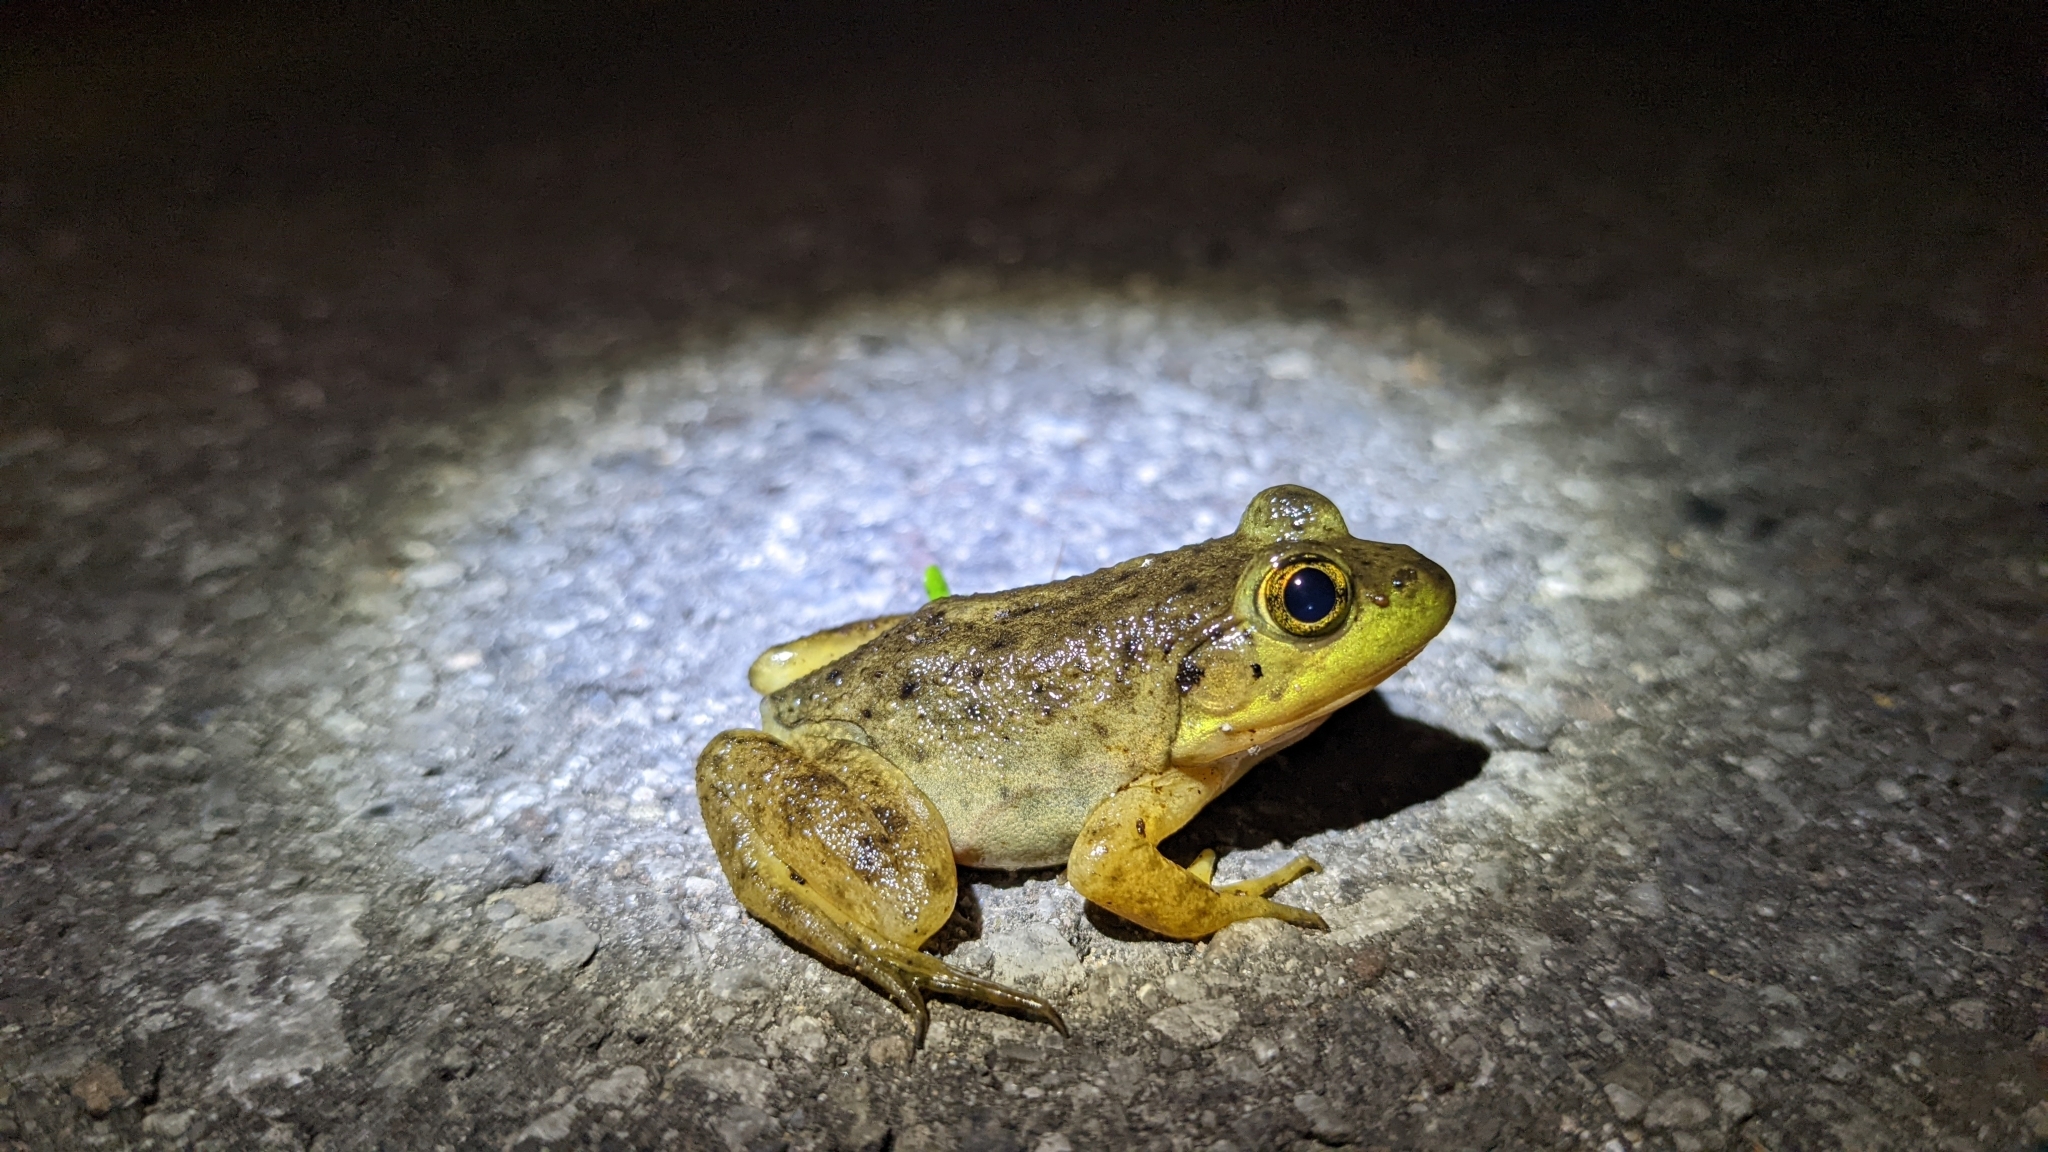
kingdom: Animalia
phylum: Chordata
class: Amphibia
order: Anura
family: Ranidae
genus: Lithobates
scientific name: Lithobates catesbeianus
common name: American bullfrog
